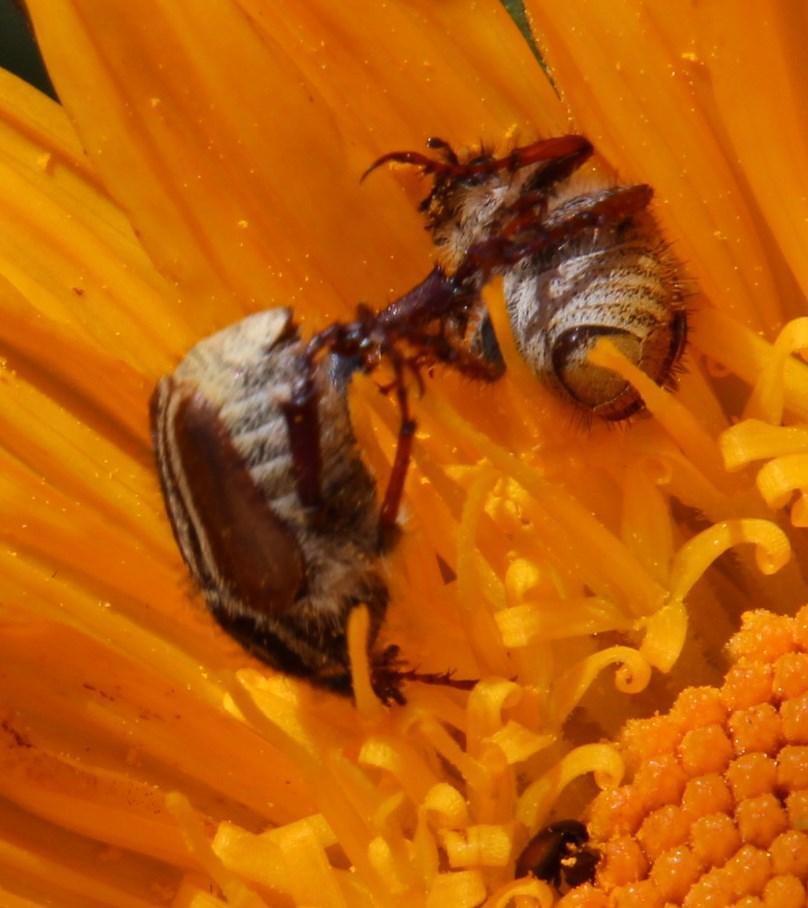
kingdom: Animalia
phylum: Arthropoda
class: Insecta
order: Coleoptera
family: Scarabaeidae
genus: Lepithrix
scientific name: Lepithrix longitarsis
